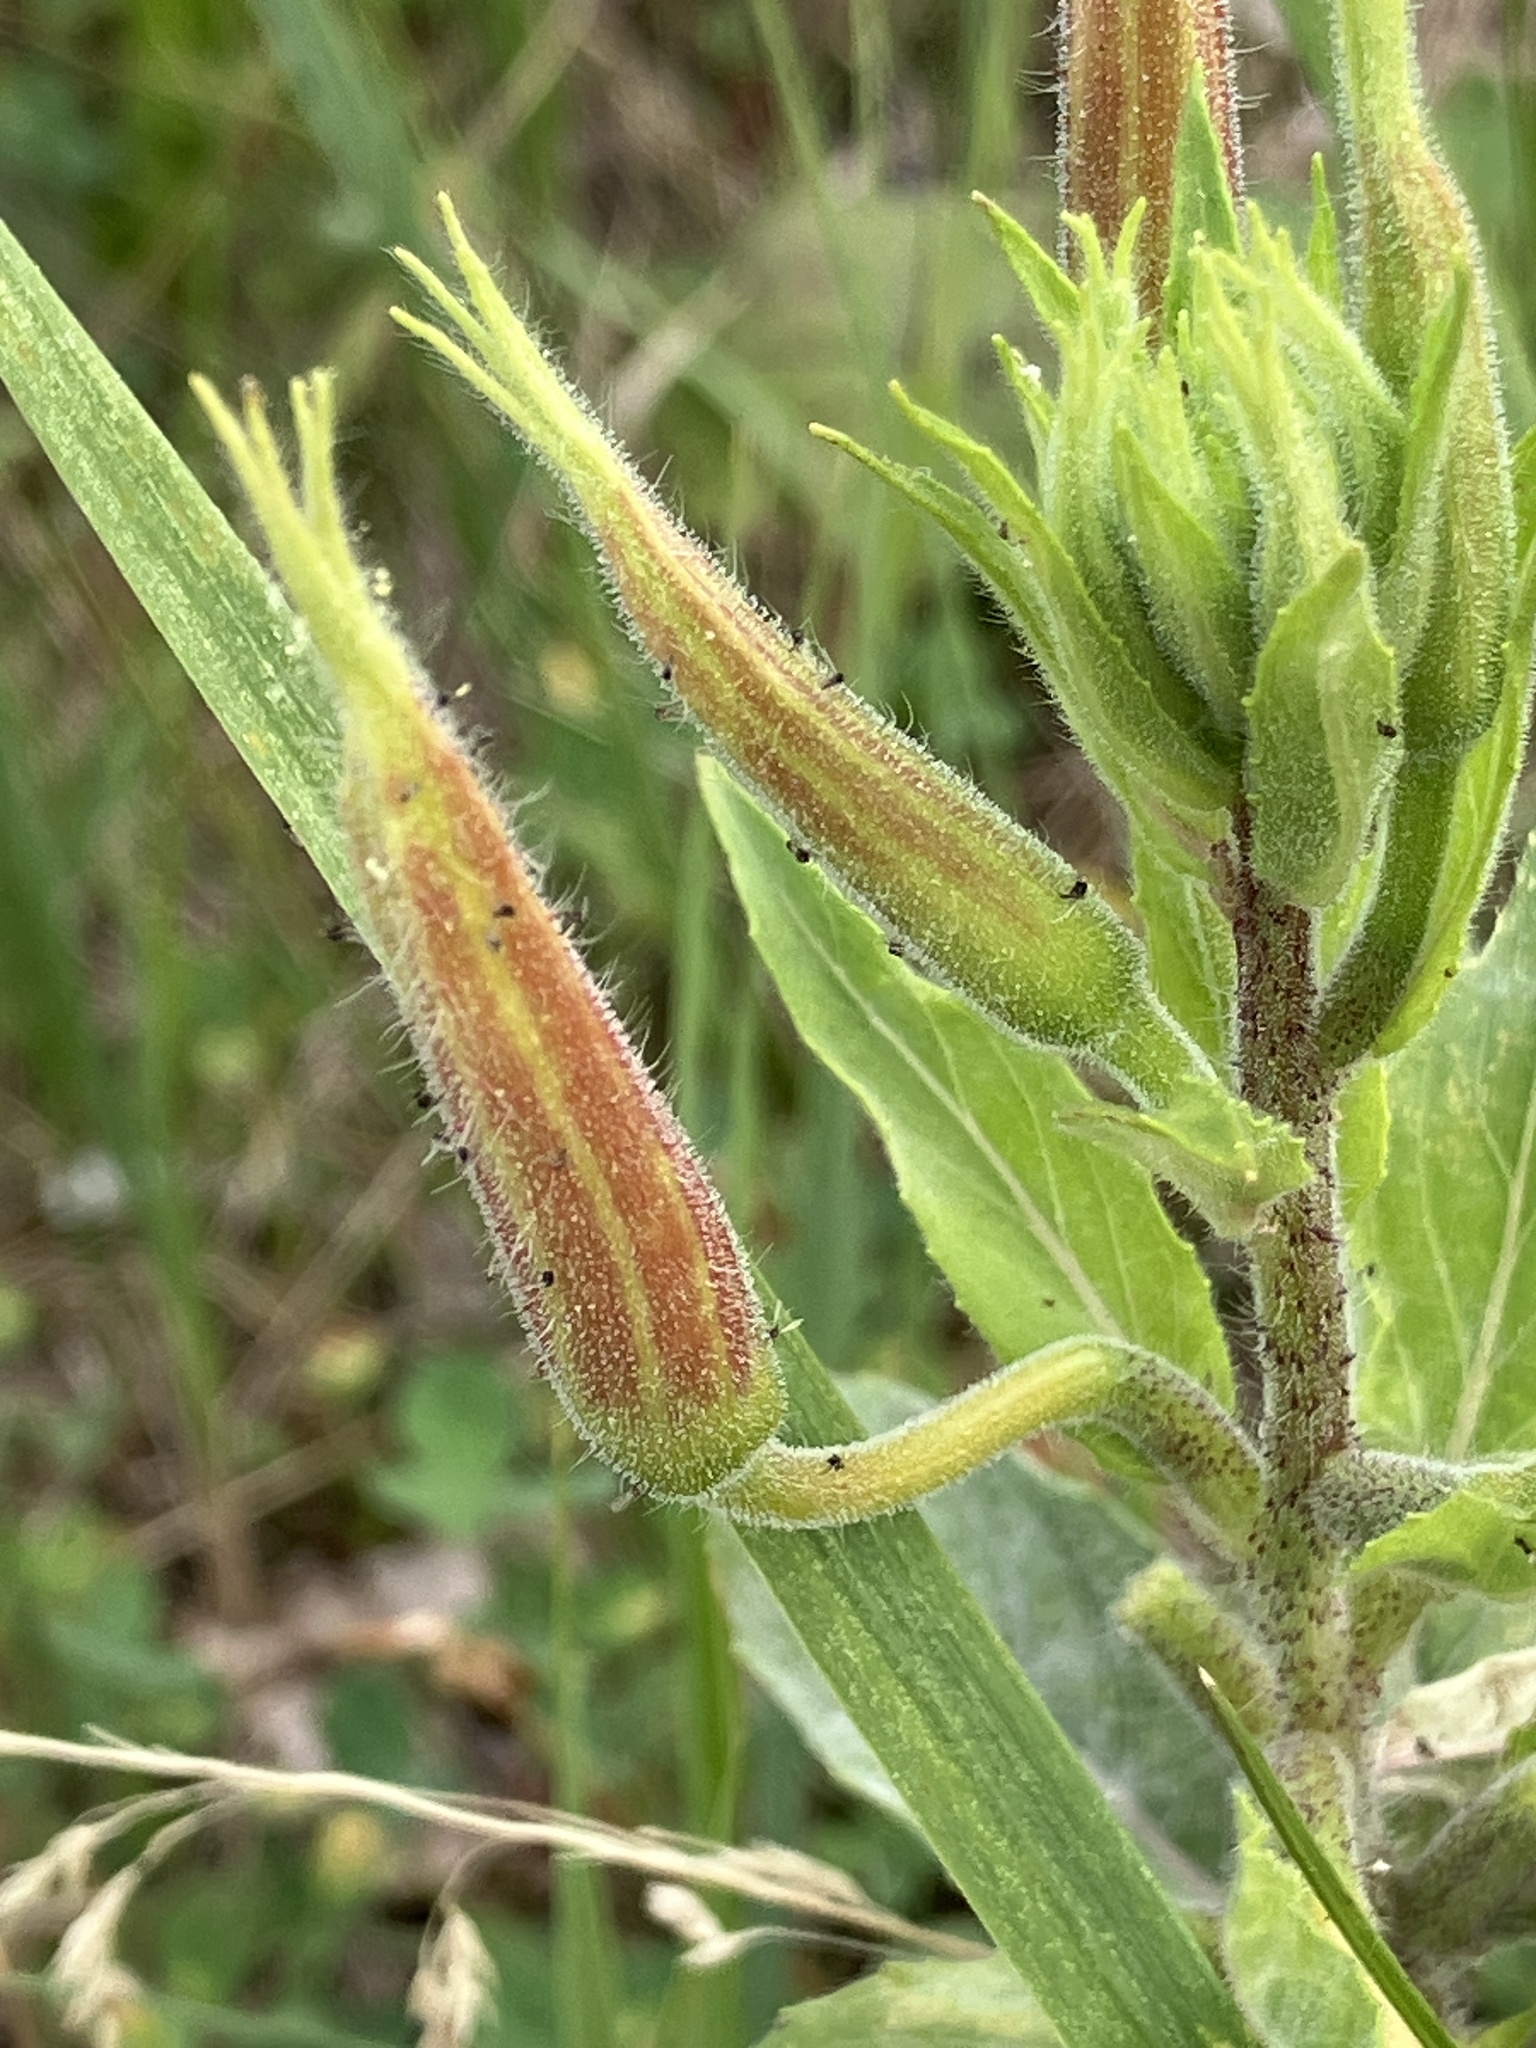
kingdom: Plantae
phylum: Tracheophyta
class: Magnoliopsida
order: Myrtales
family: Onagraceae
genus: Oenothera
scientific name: Oenothera glazioviana
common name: Large-flowered evening-primrose
